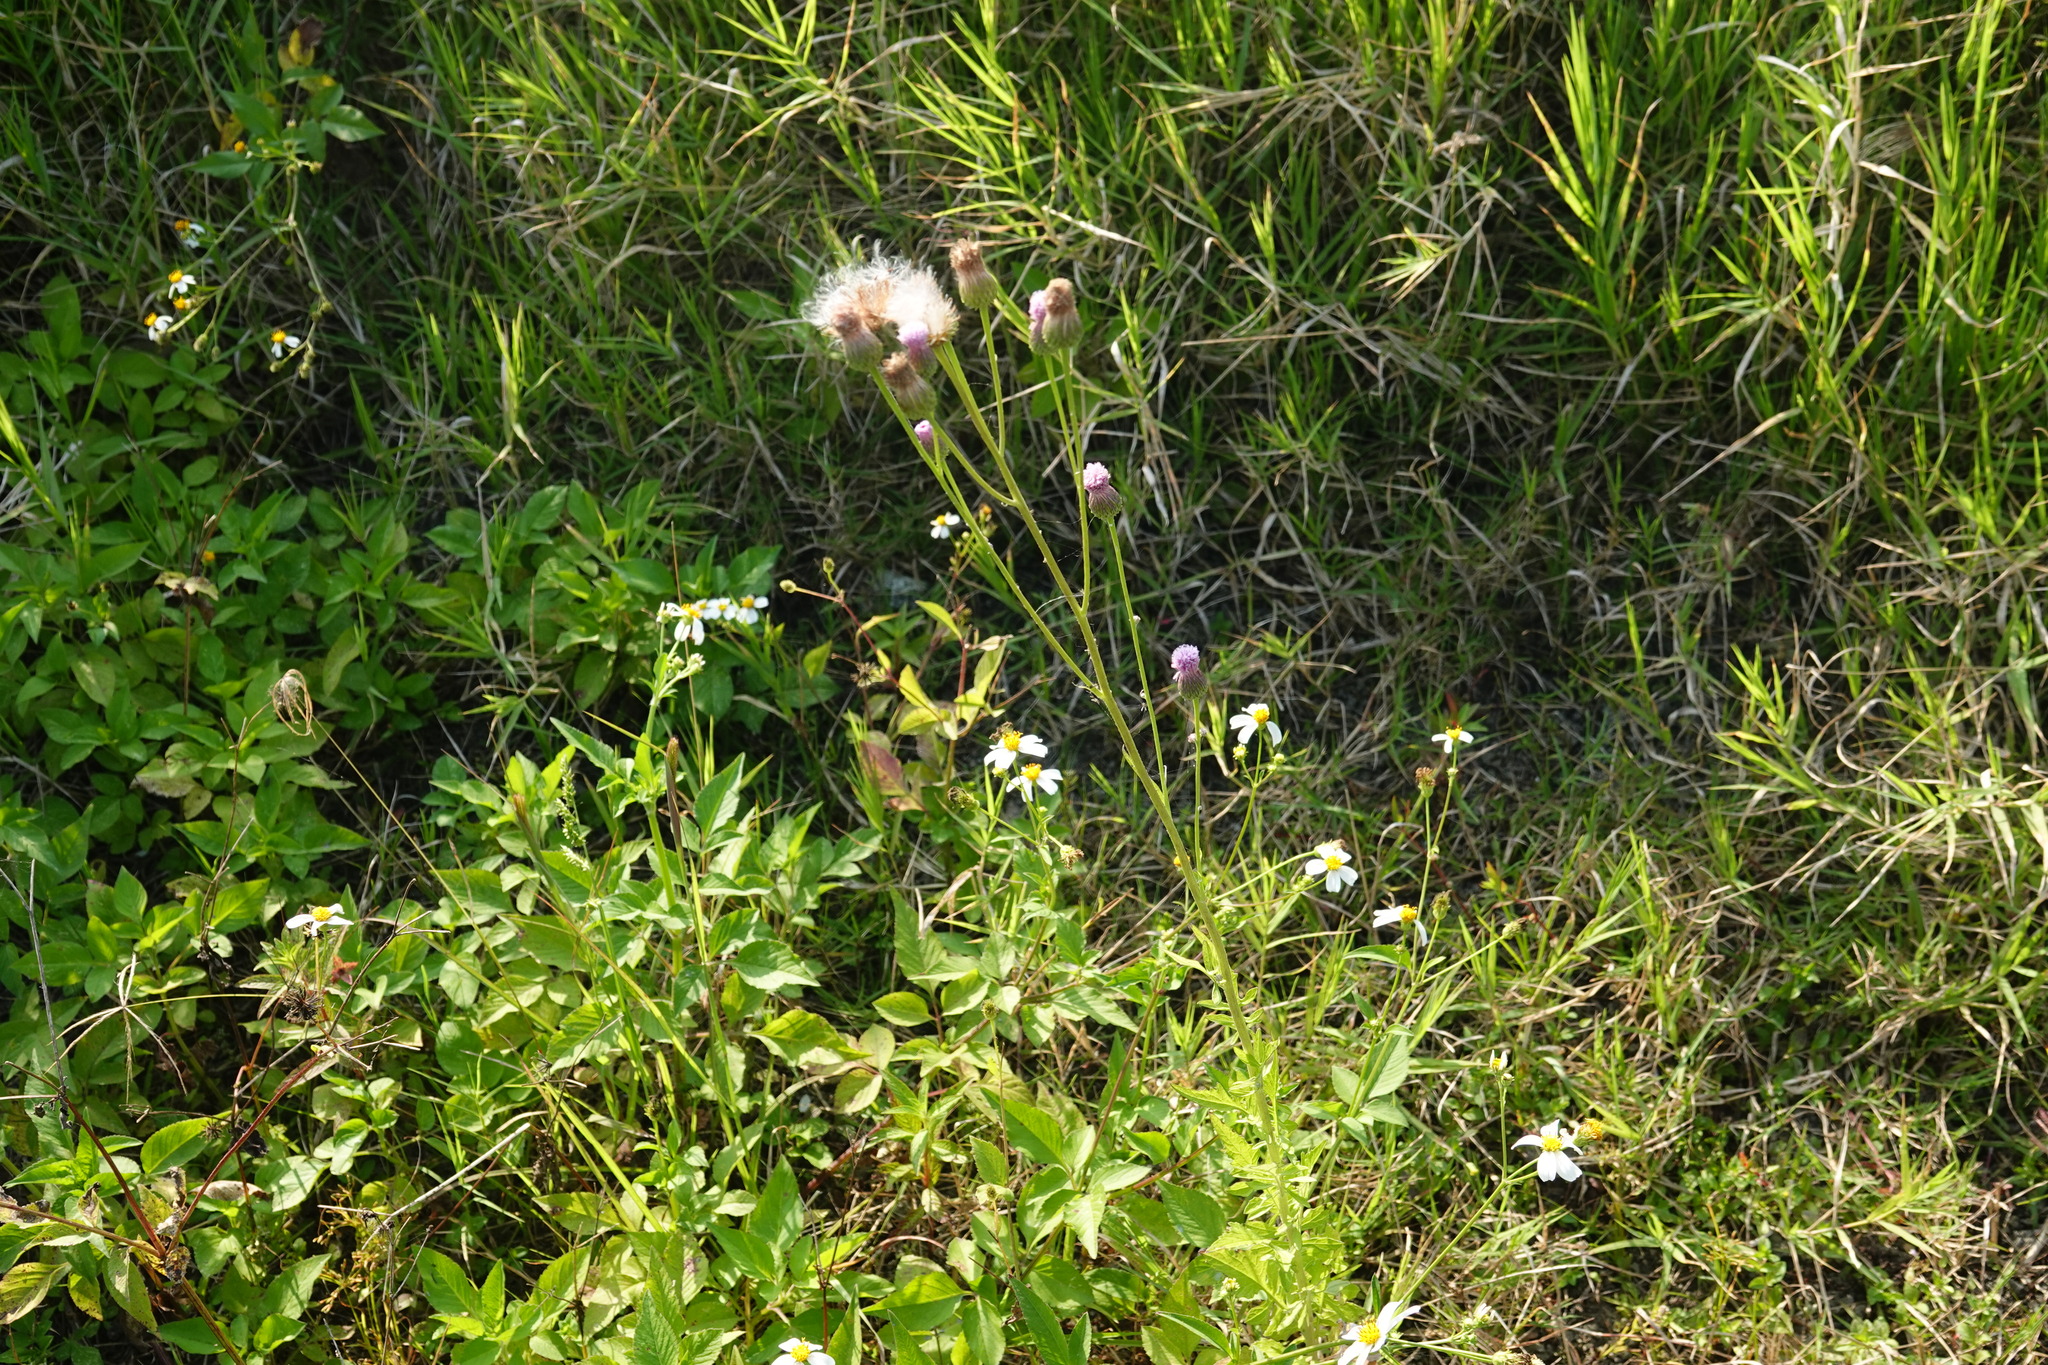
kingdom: Plantae
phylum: Tracheophyta
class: Magnoliopsida
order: Asterales
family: Asteraceae
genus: Saussurea
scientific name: Saussurea lyrata
